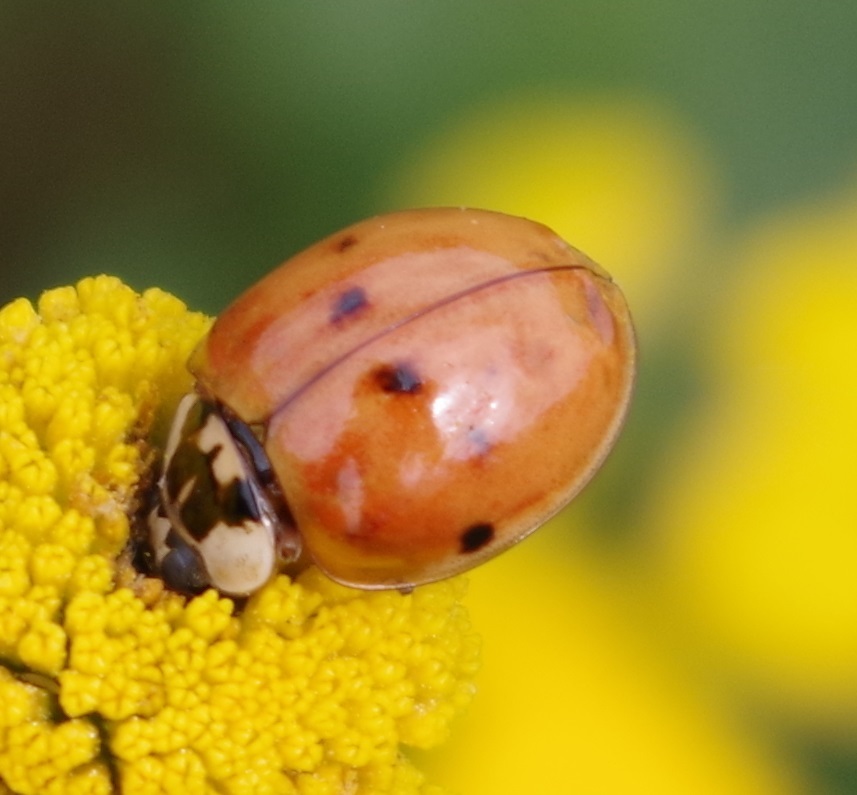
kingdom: Animalia
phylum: Arthropoda
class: Insecta
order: Coleoptera
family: Coccinellidae
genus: Harmonia
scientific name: Harmonia axyridis
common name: Harlequin ladybird
